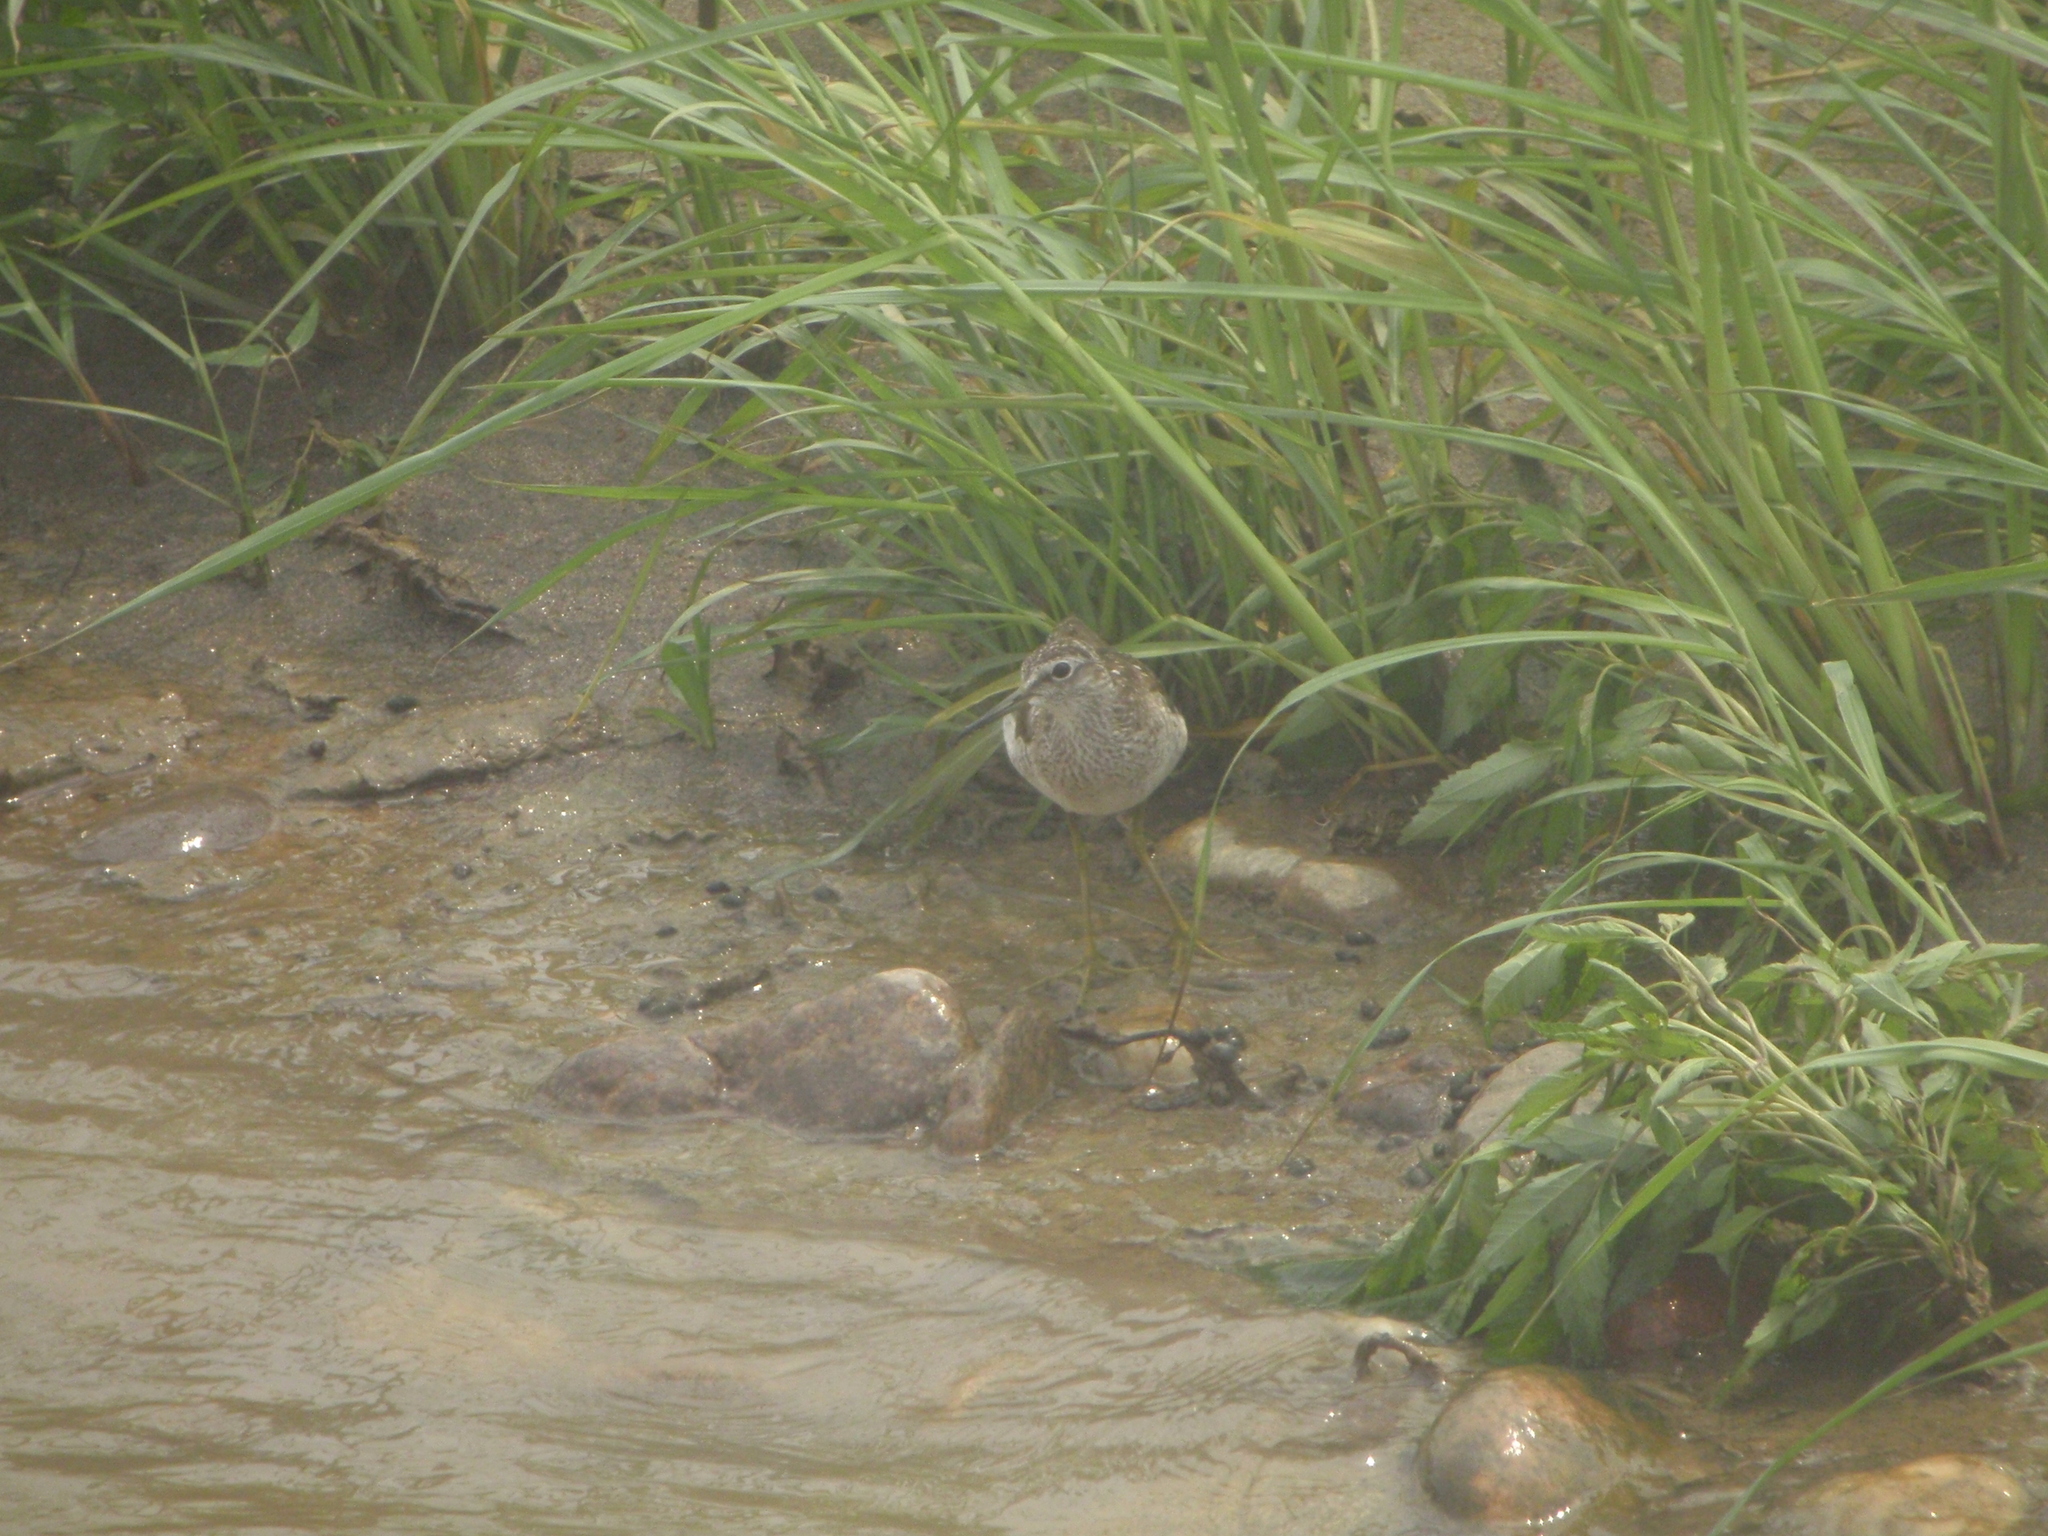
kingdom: Animalia
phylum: Chordata
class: Aves
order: Charadriiformes
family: Scolopacidae
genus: Tringa
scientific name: Tringa glareola
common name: Wood sandpiper
